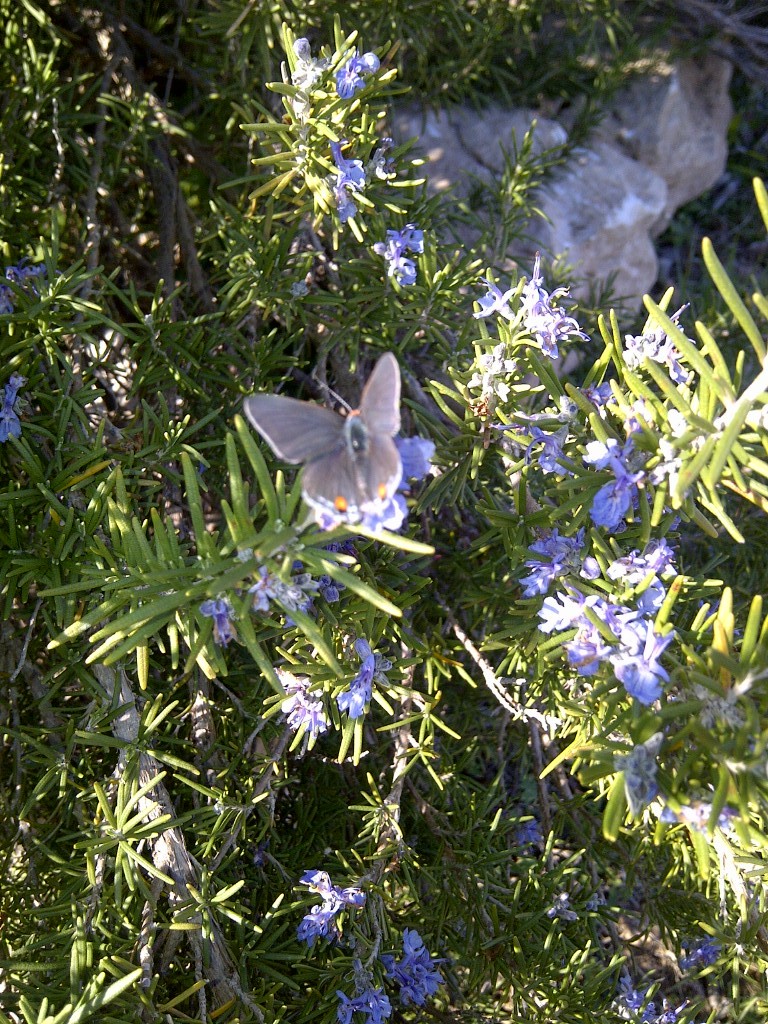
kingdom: Animalia
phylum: Arthropoda
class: Insecta
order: Lepidoptera
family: Lycaenidae
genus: Strymon
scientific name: Strymon melinus
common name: Gray hairstreak
